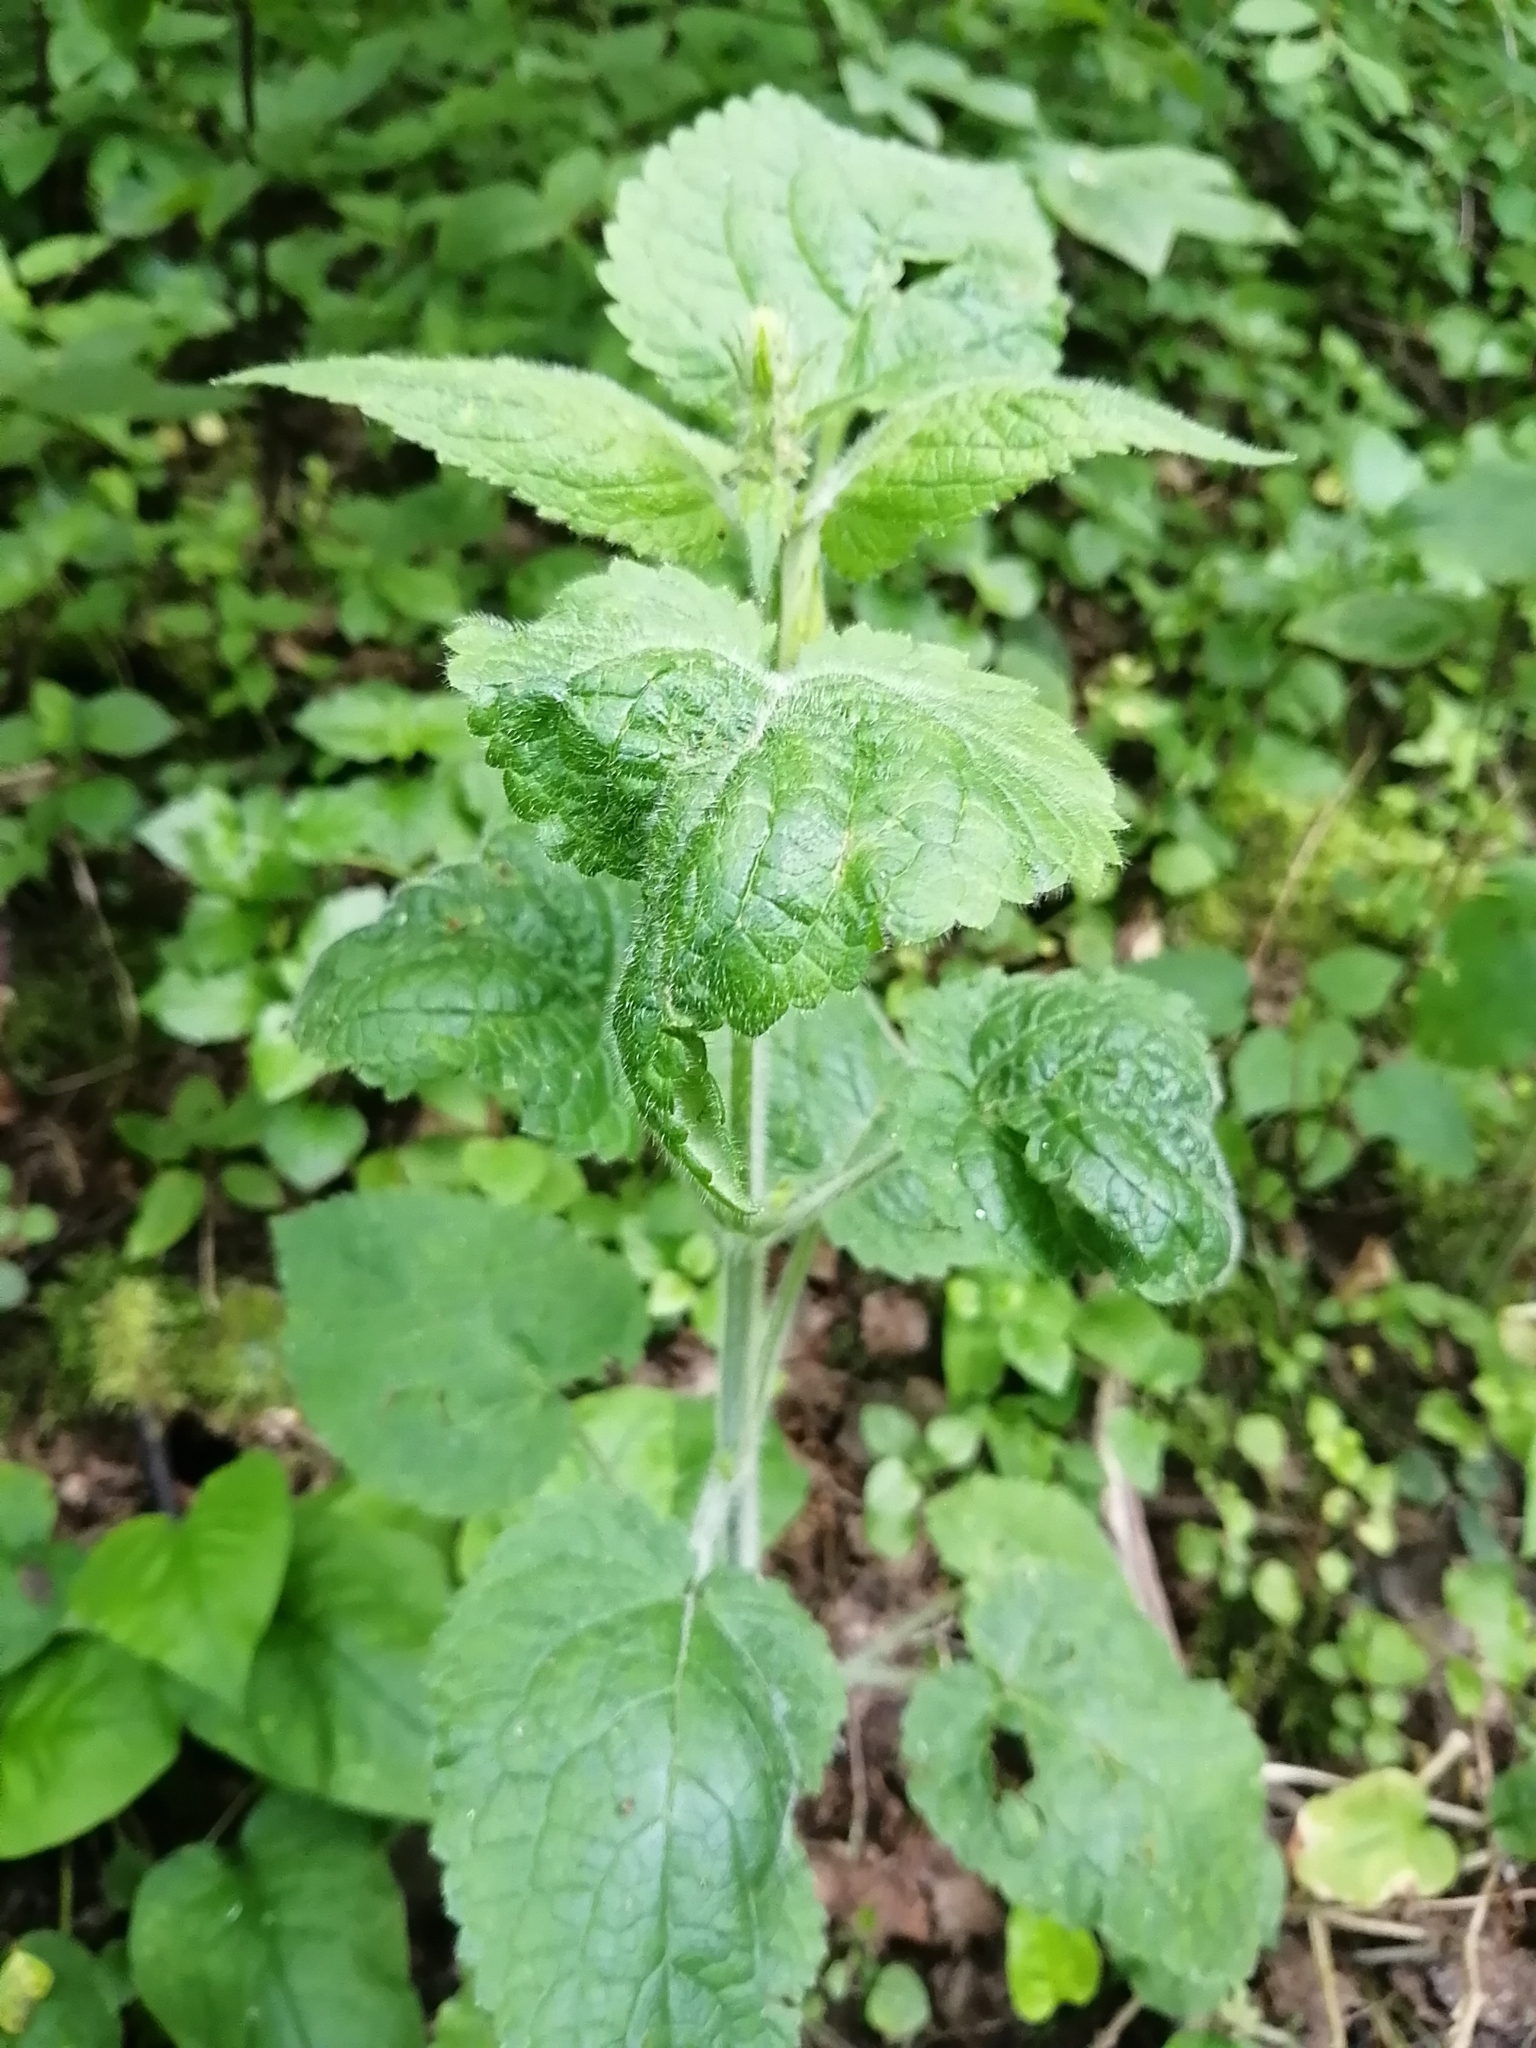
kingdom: Plantae
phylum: Tracheophyta
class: Magnoliopsida
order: Lamiales
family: Lamiaceae
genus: Stachys
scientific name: Stachys sylvatica
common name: Hedge woundwort
